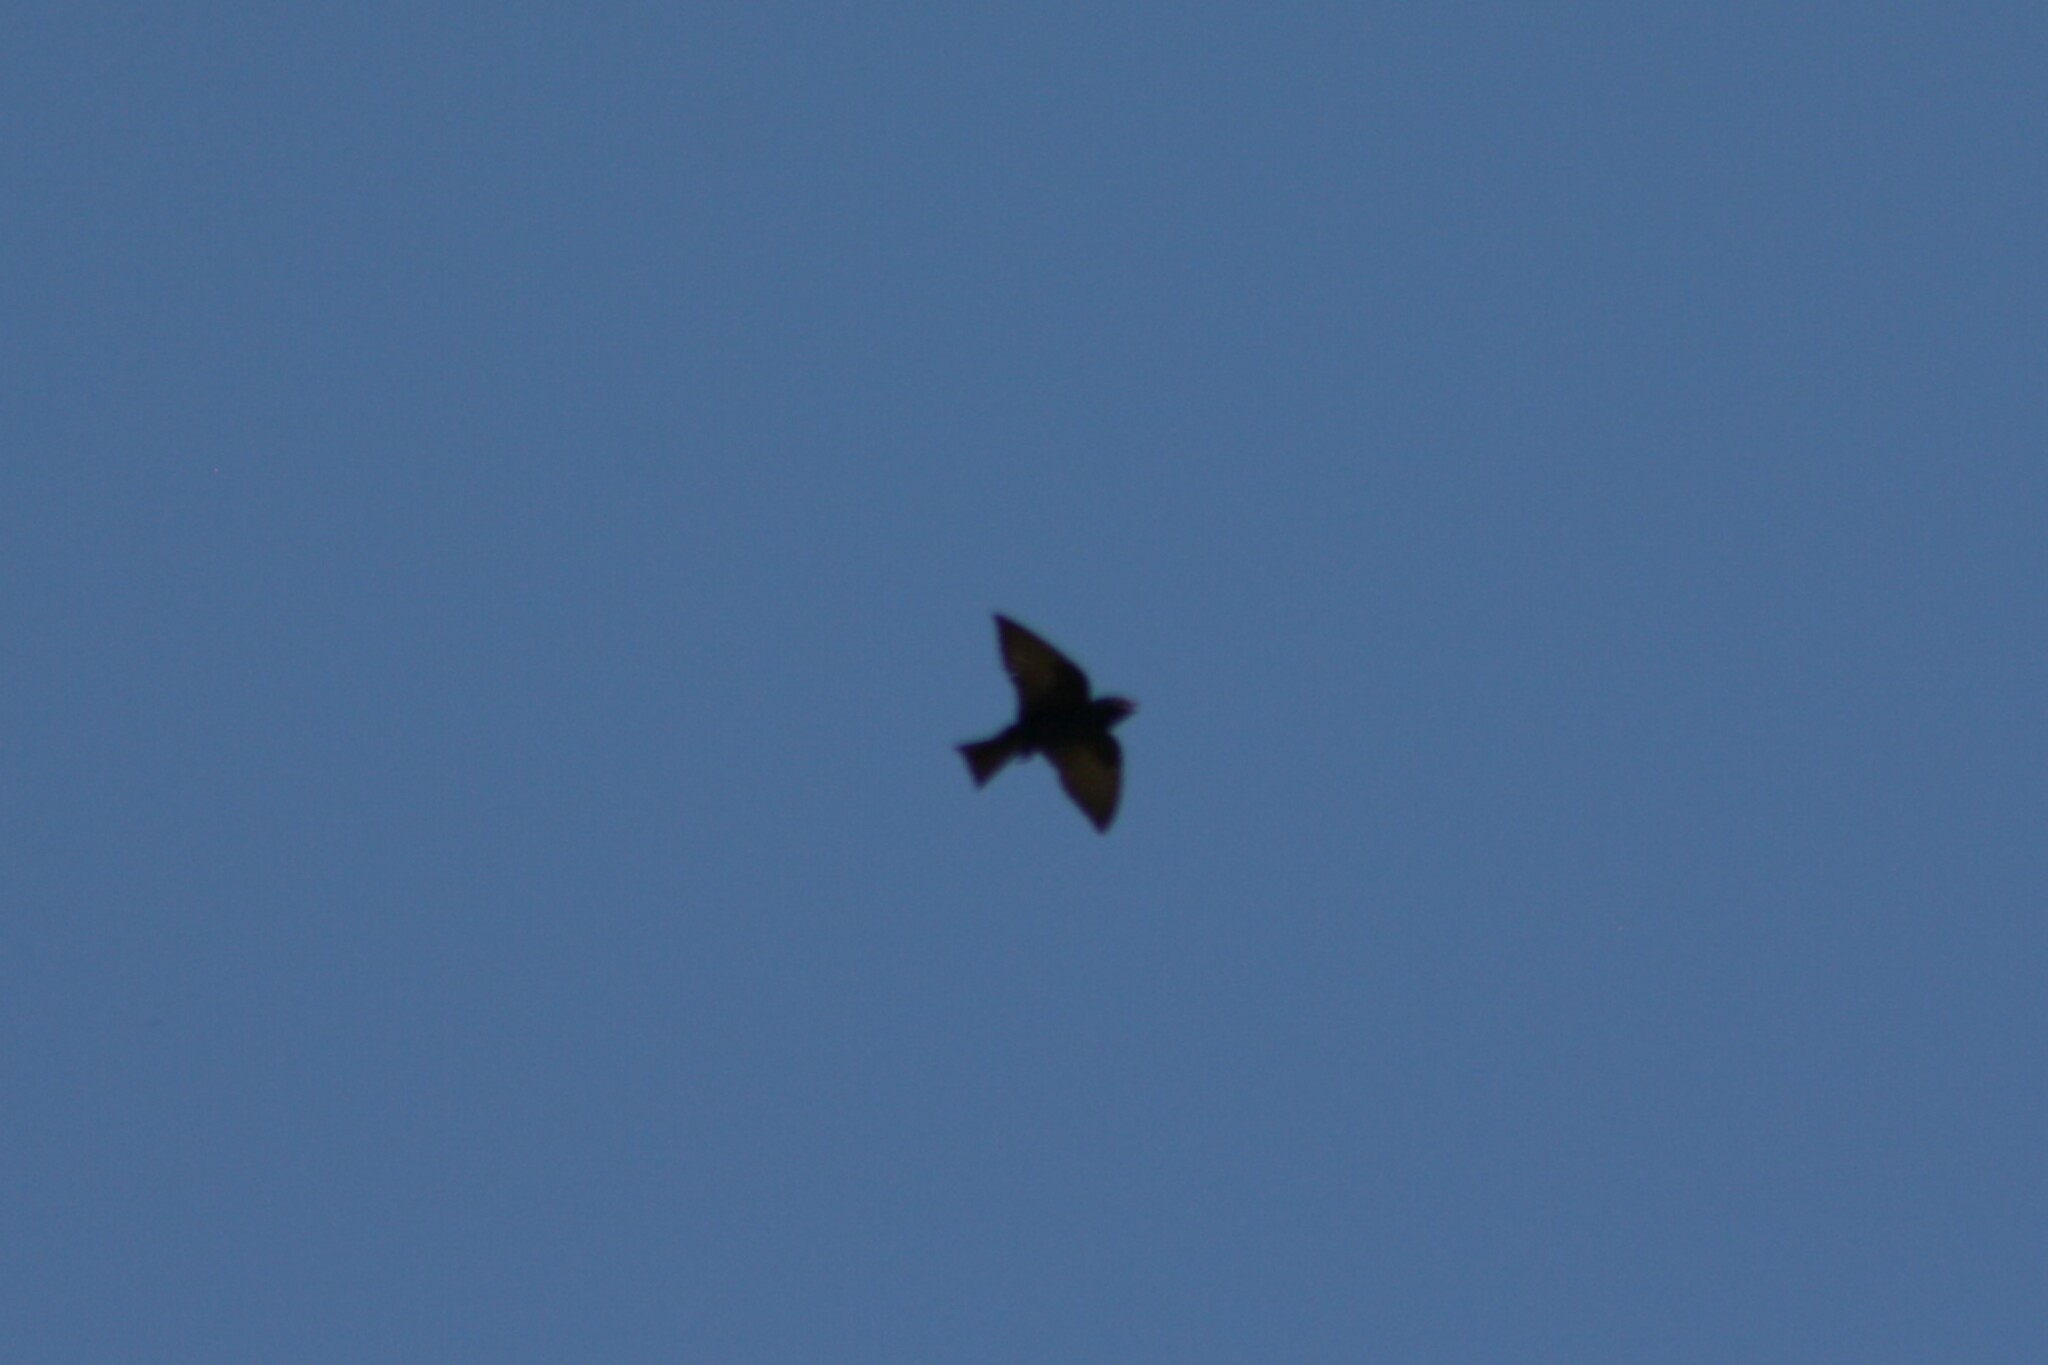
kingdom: Animalia
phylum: Chordata
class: Aves
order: Passeriformes
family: Hirundinidae
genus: Progne
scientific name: Progne subis
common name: Purple martin
